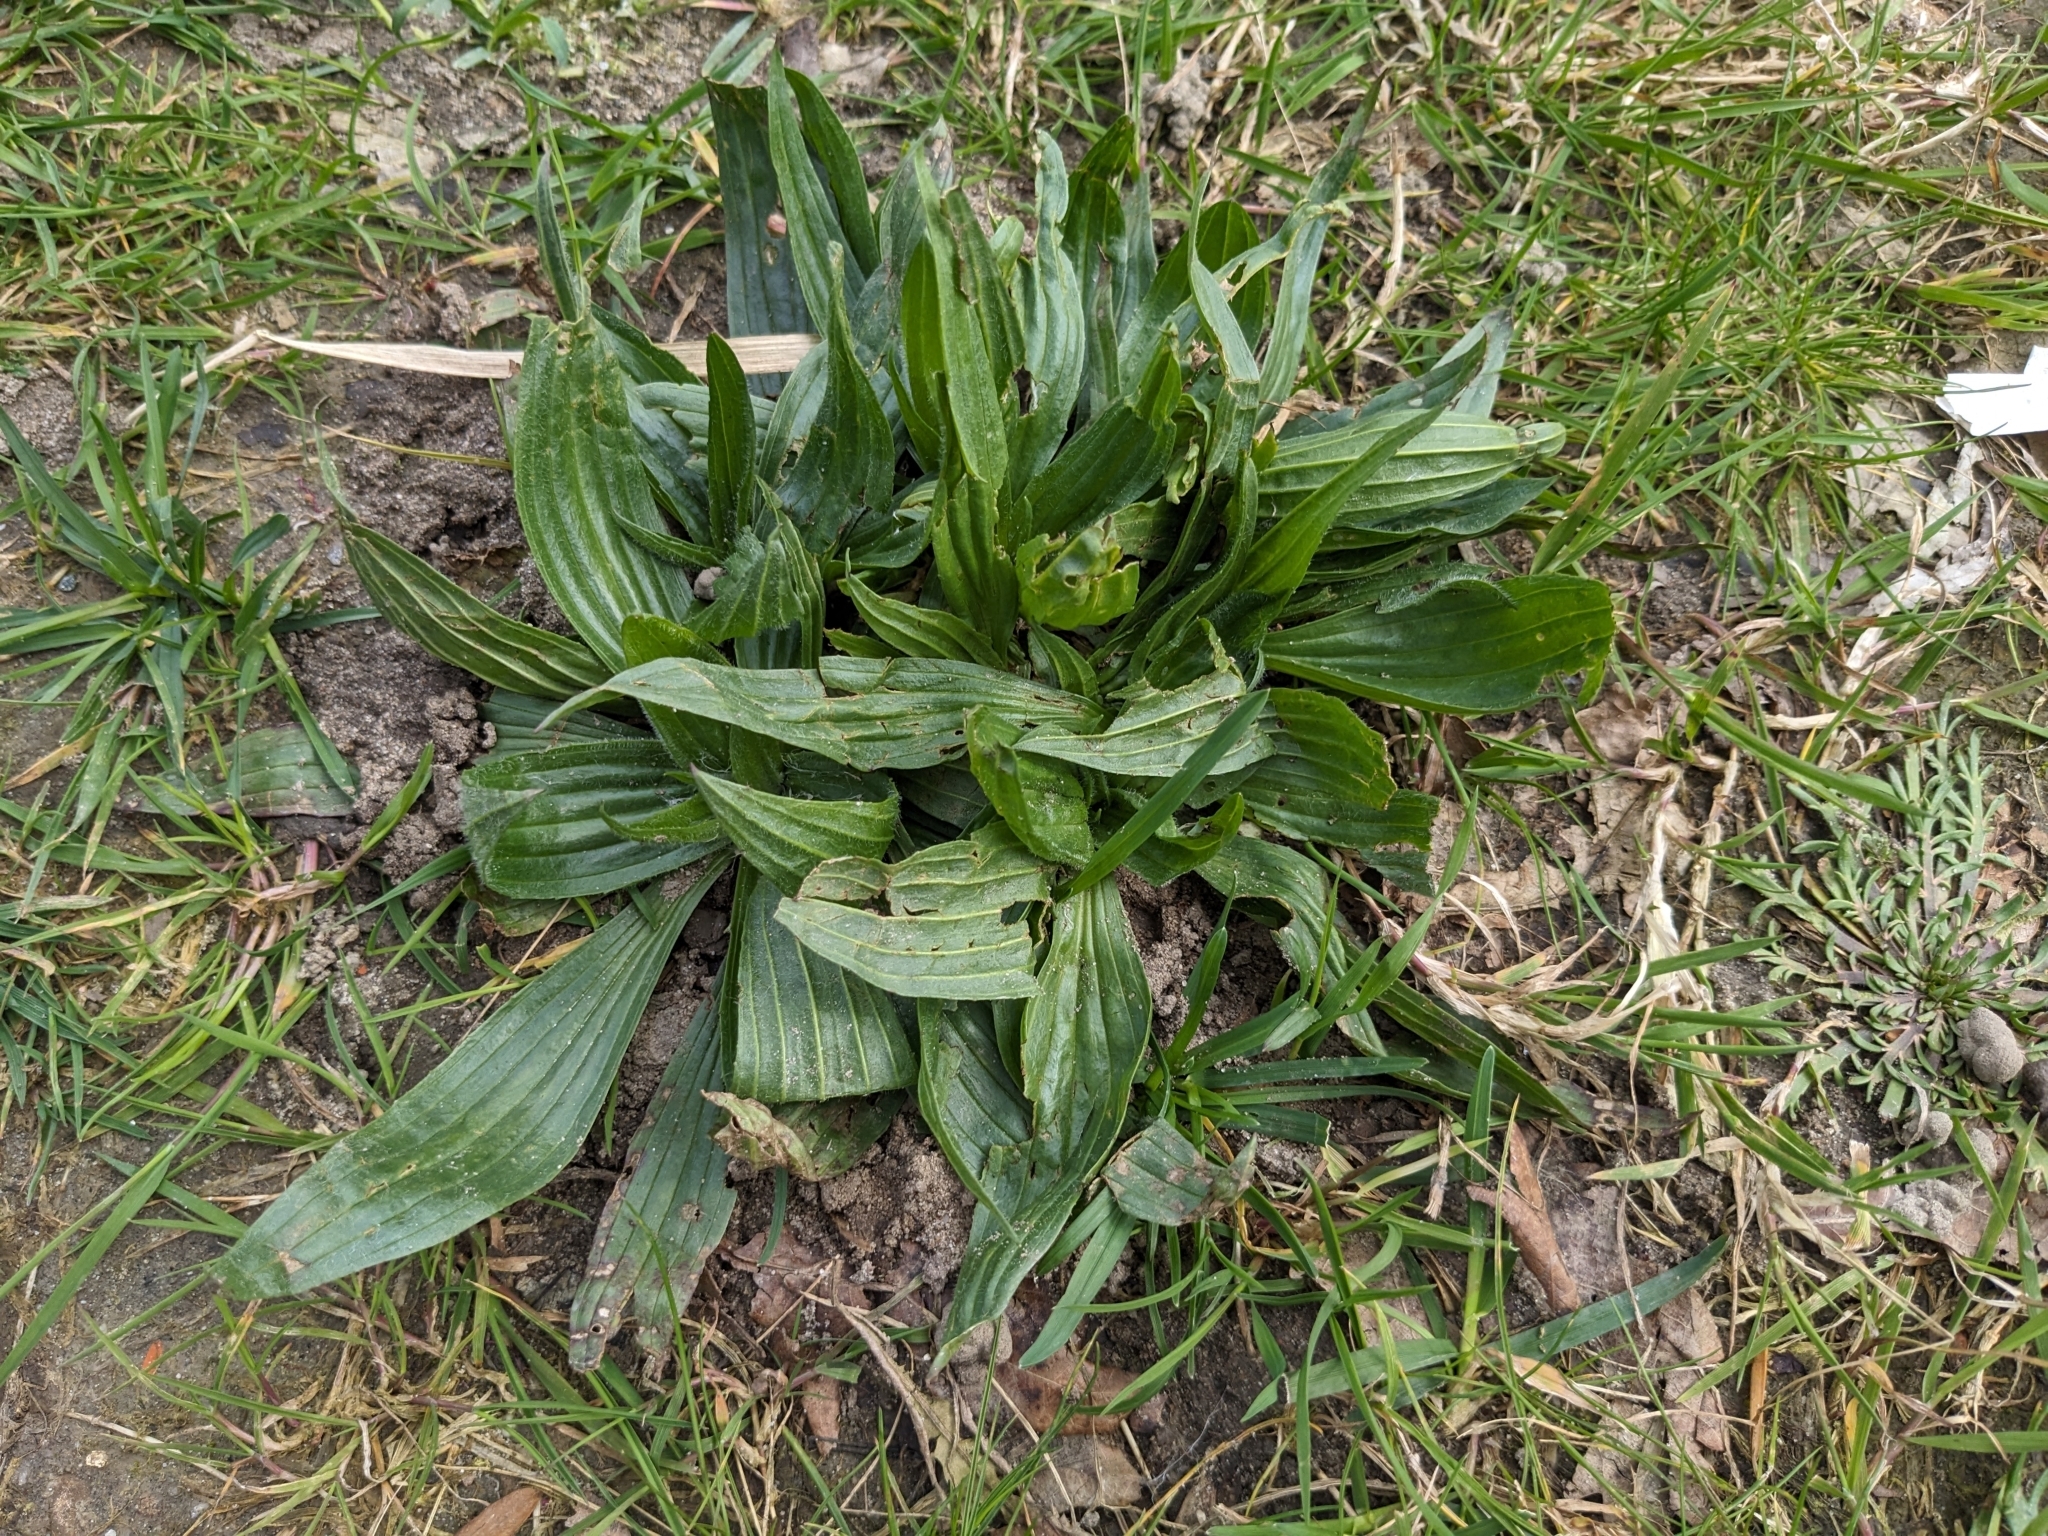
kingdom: Plantae
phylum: Tracheophyta
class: Magnoliopsida
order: Lamiales
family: Plantaginaceae
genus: Plantago
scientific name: Plantago lanceolata
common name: Ribwort plantain
